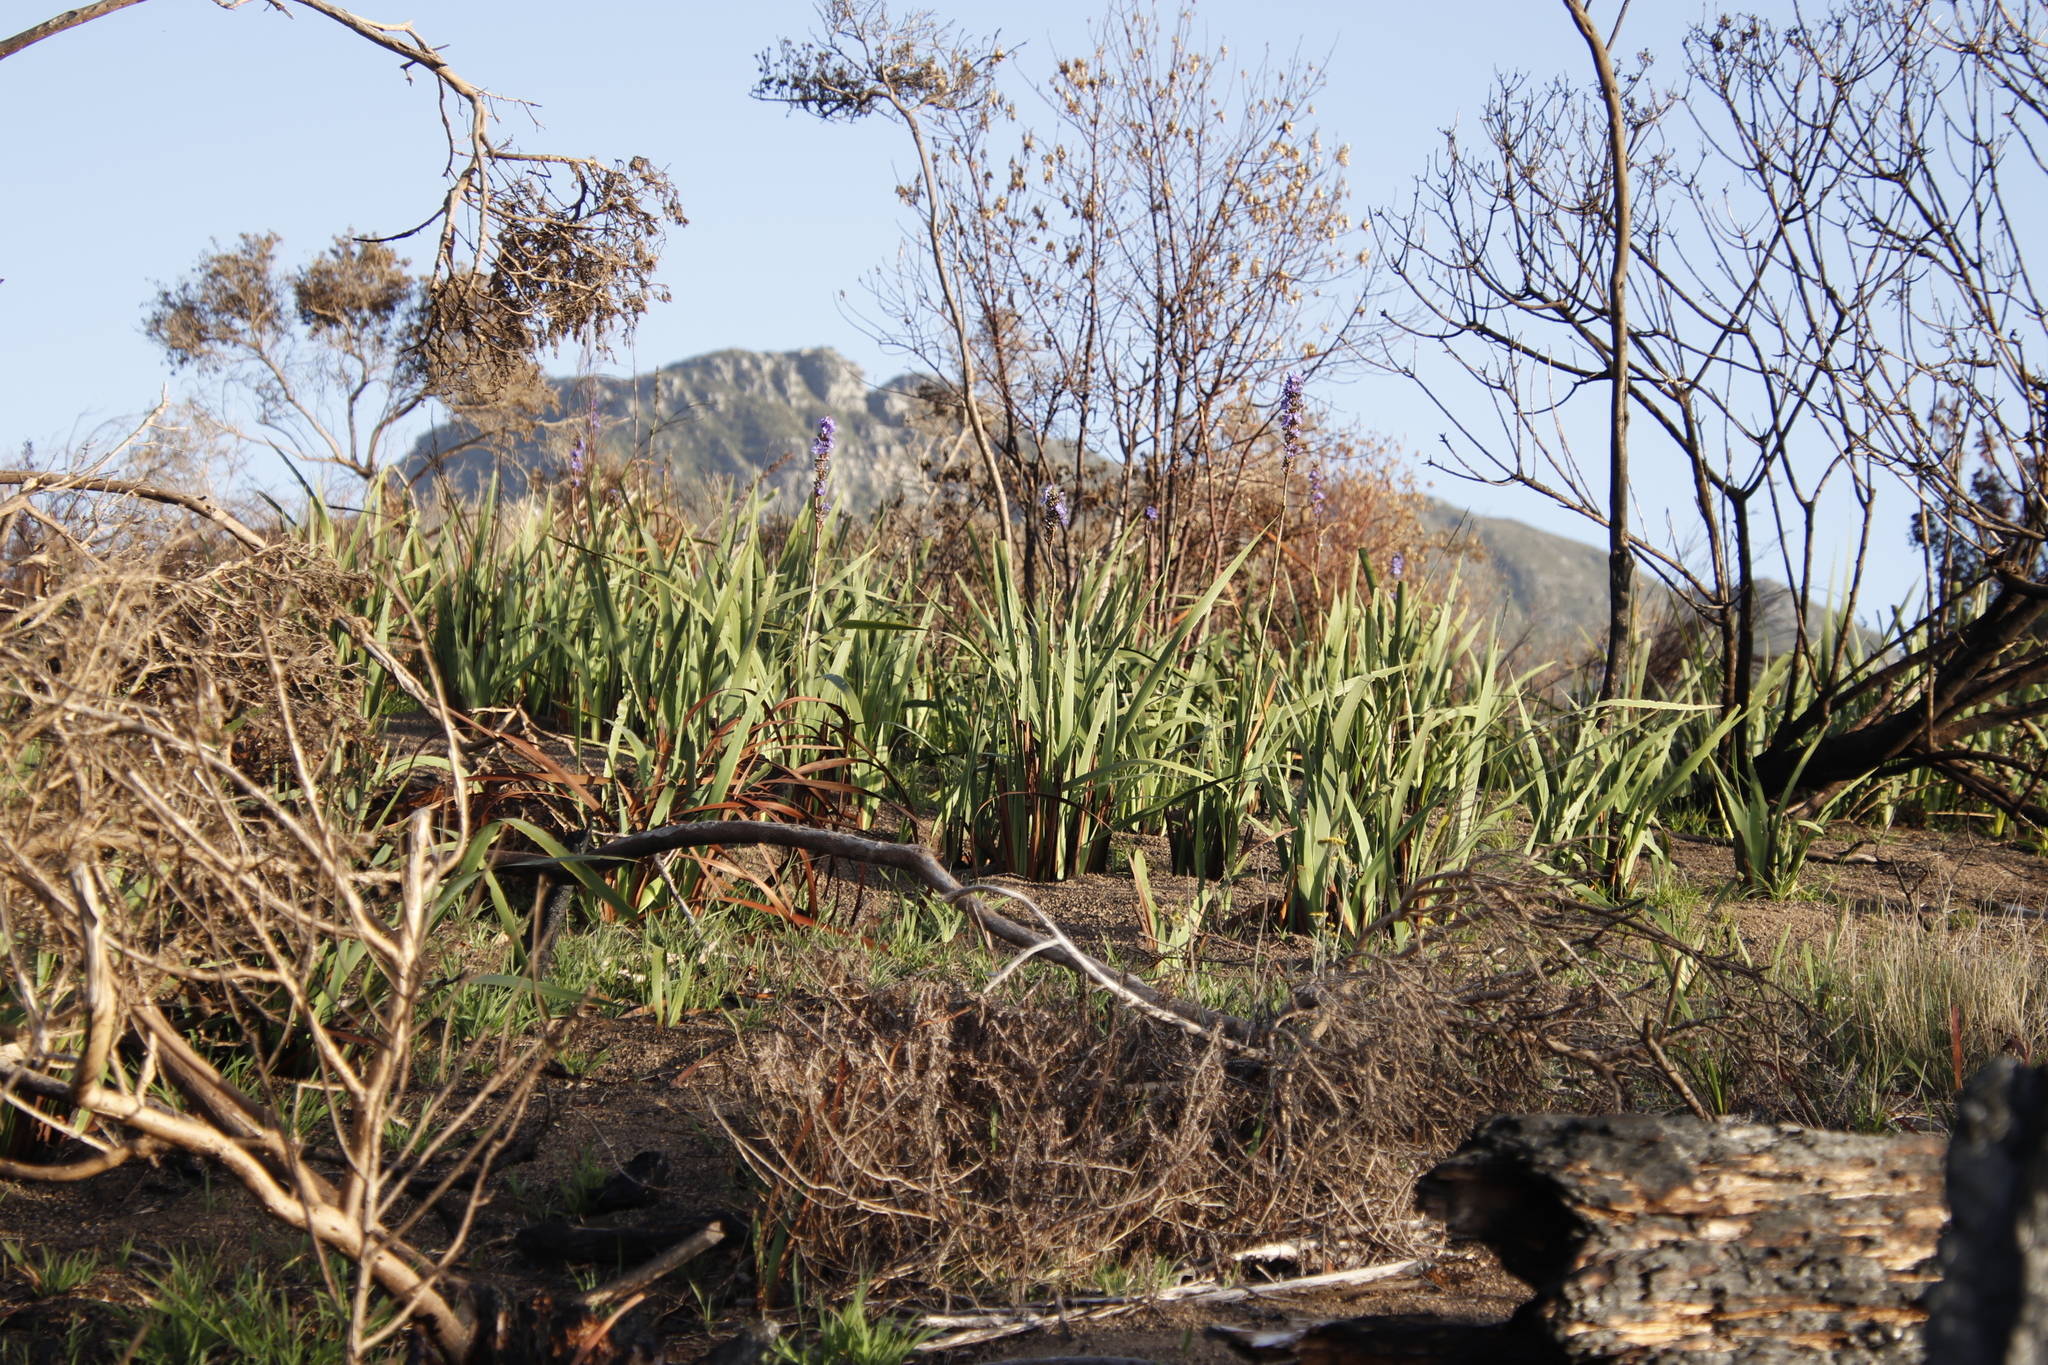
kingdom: Plantae
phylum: Tracheophyta
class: Liliopsida
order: Asparagales
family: Iridaceae
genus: Aristea
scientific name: Aristea capitata
